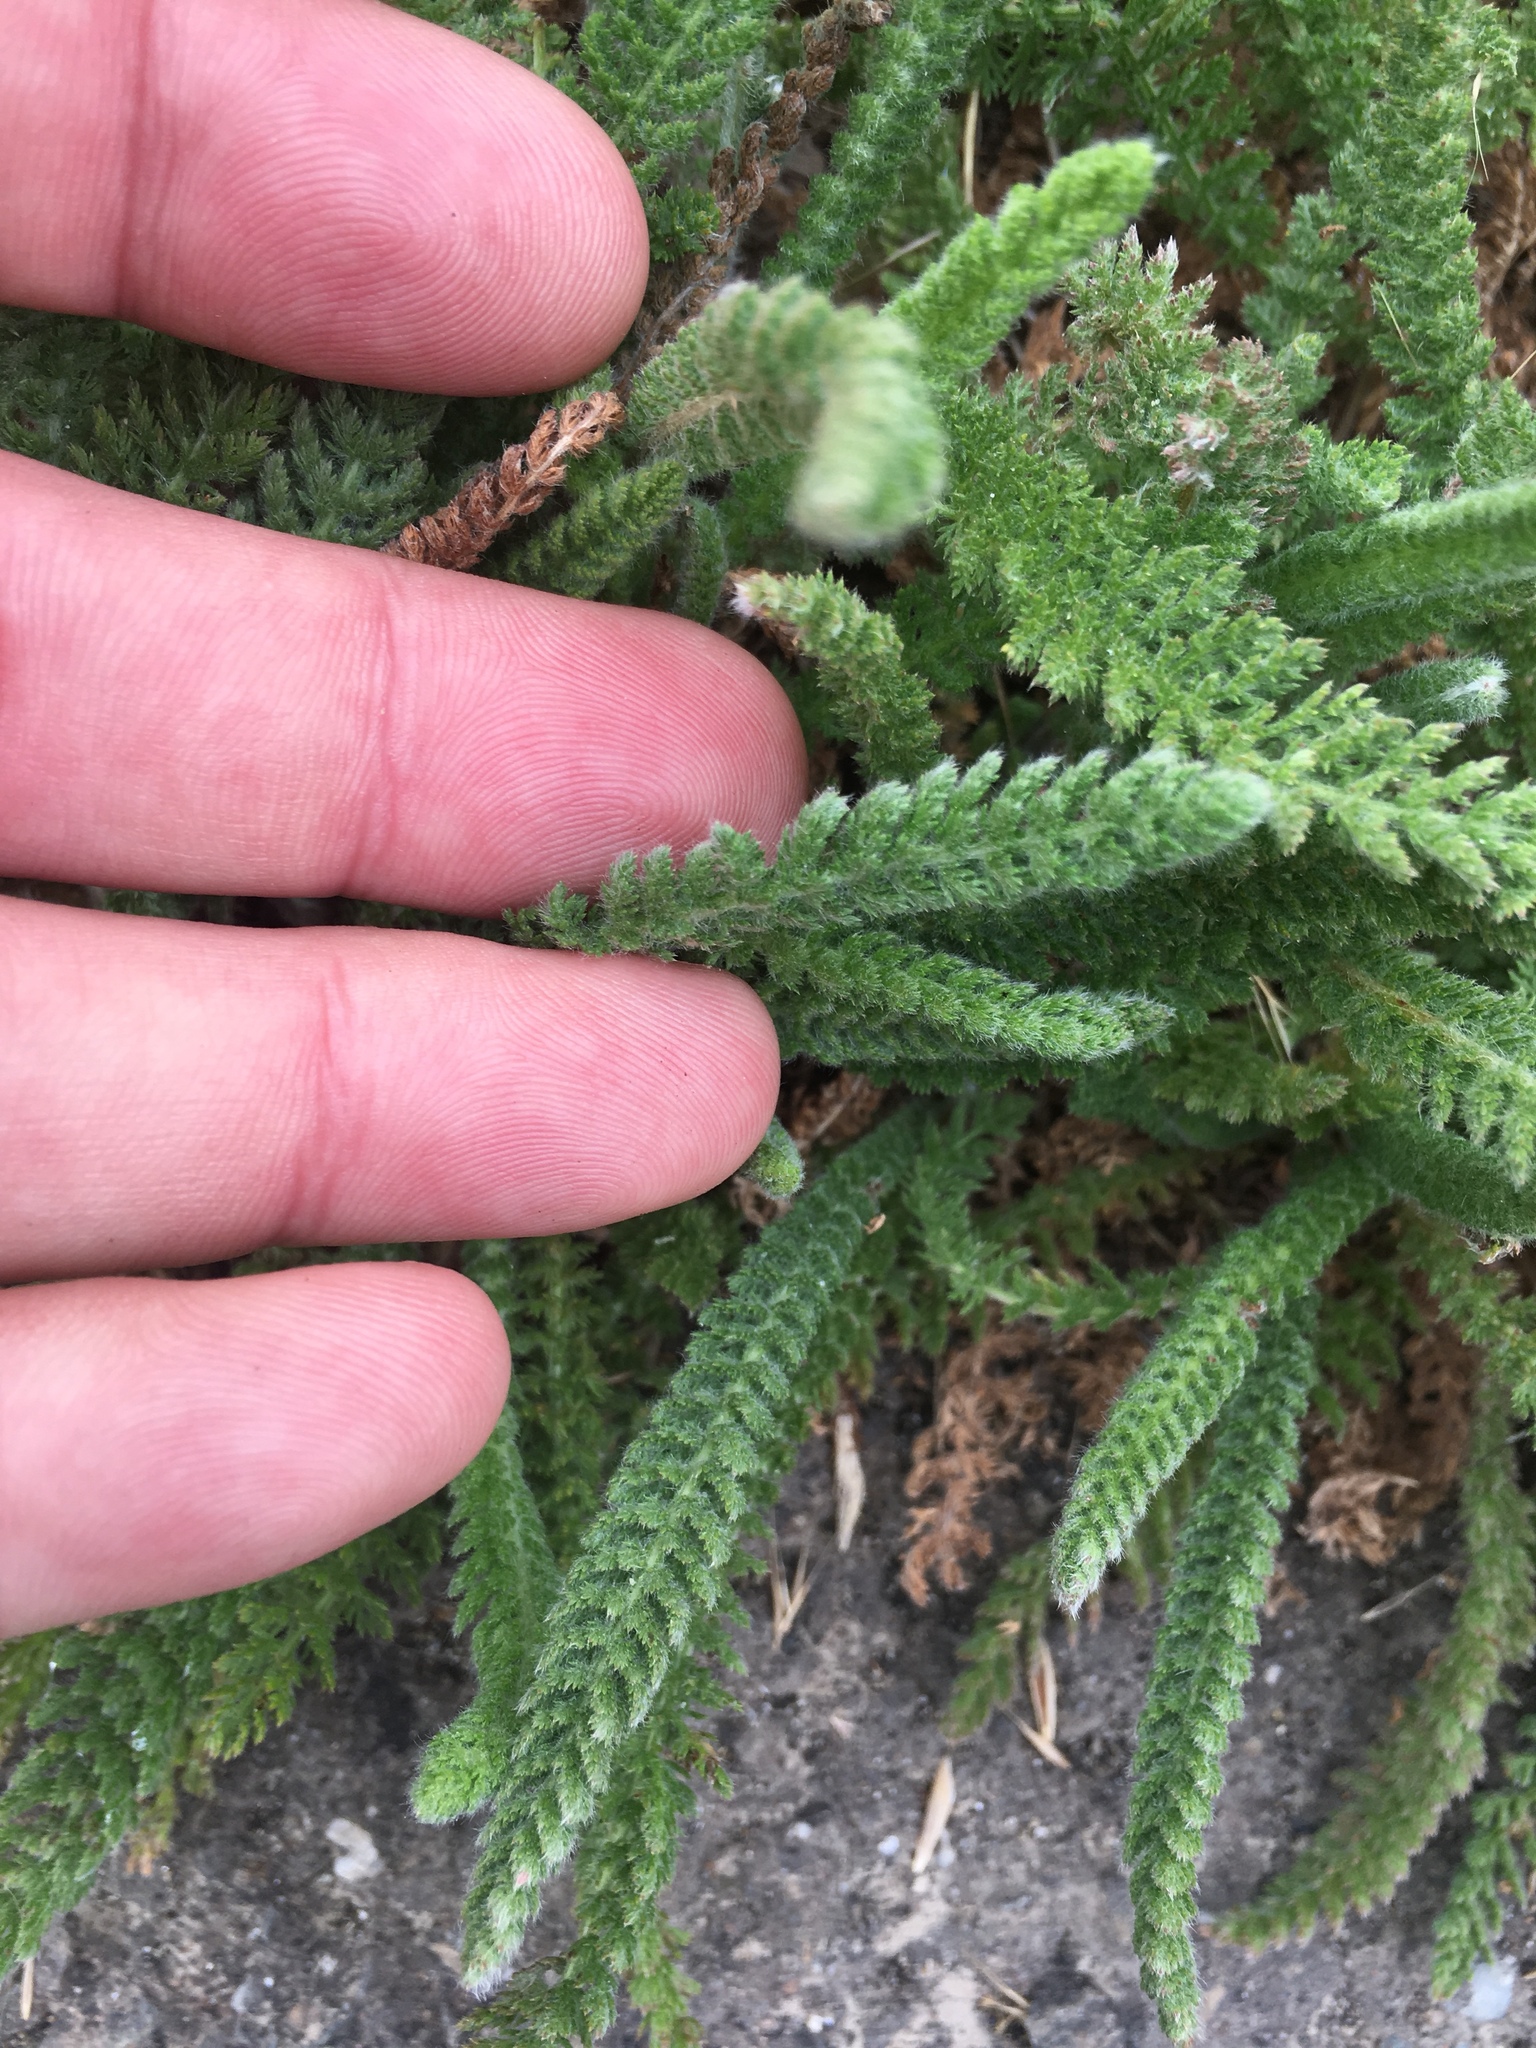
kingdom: Plantae
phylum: Tracheophyta
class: Magnoliopsida
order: Asterales
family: Asteraceae
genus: Achillea
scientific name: Achillea millefolium
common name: Yarrow
